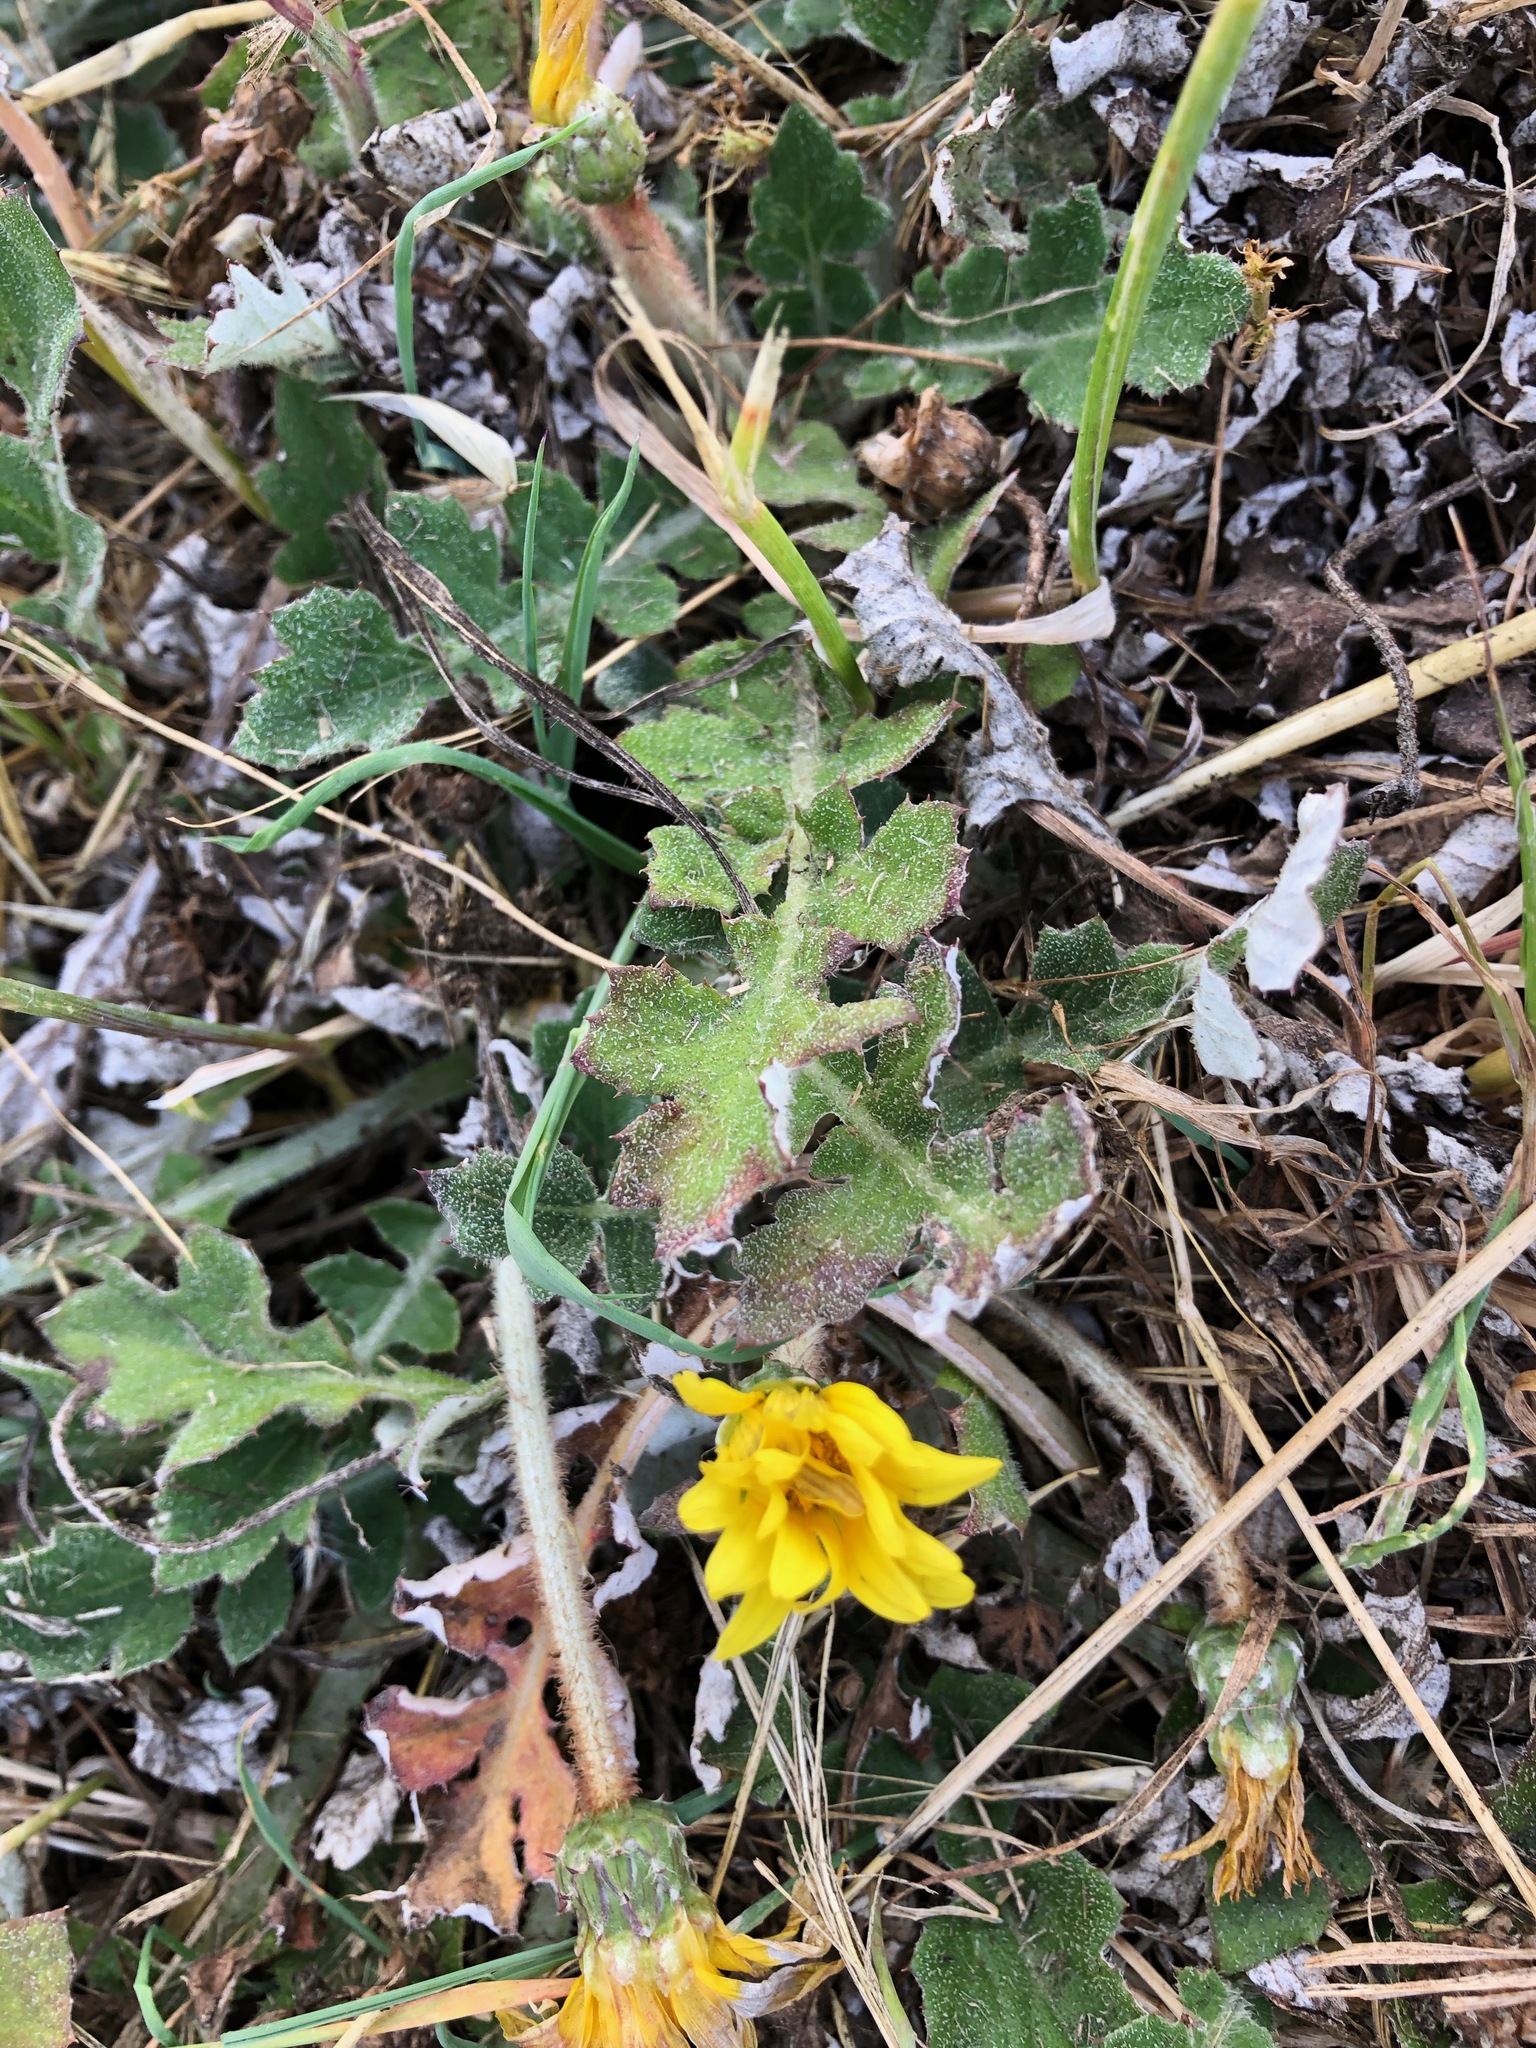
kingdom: Plantae
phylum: Tracheophyta
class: Magnoliopsida
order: Asterales
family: Asteraceae
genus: Arctotheca
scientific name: Arctotheca prostrata
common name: Capeweed
